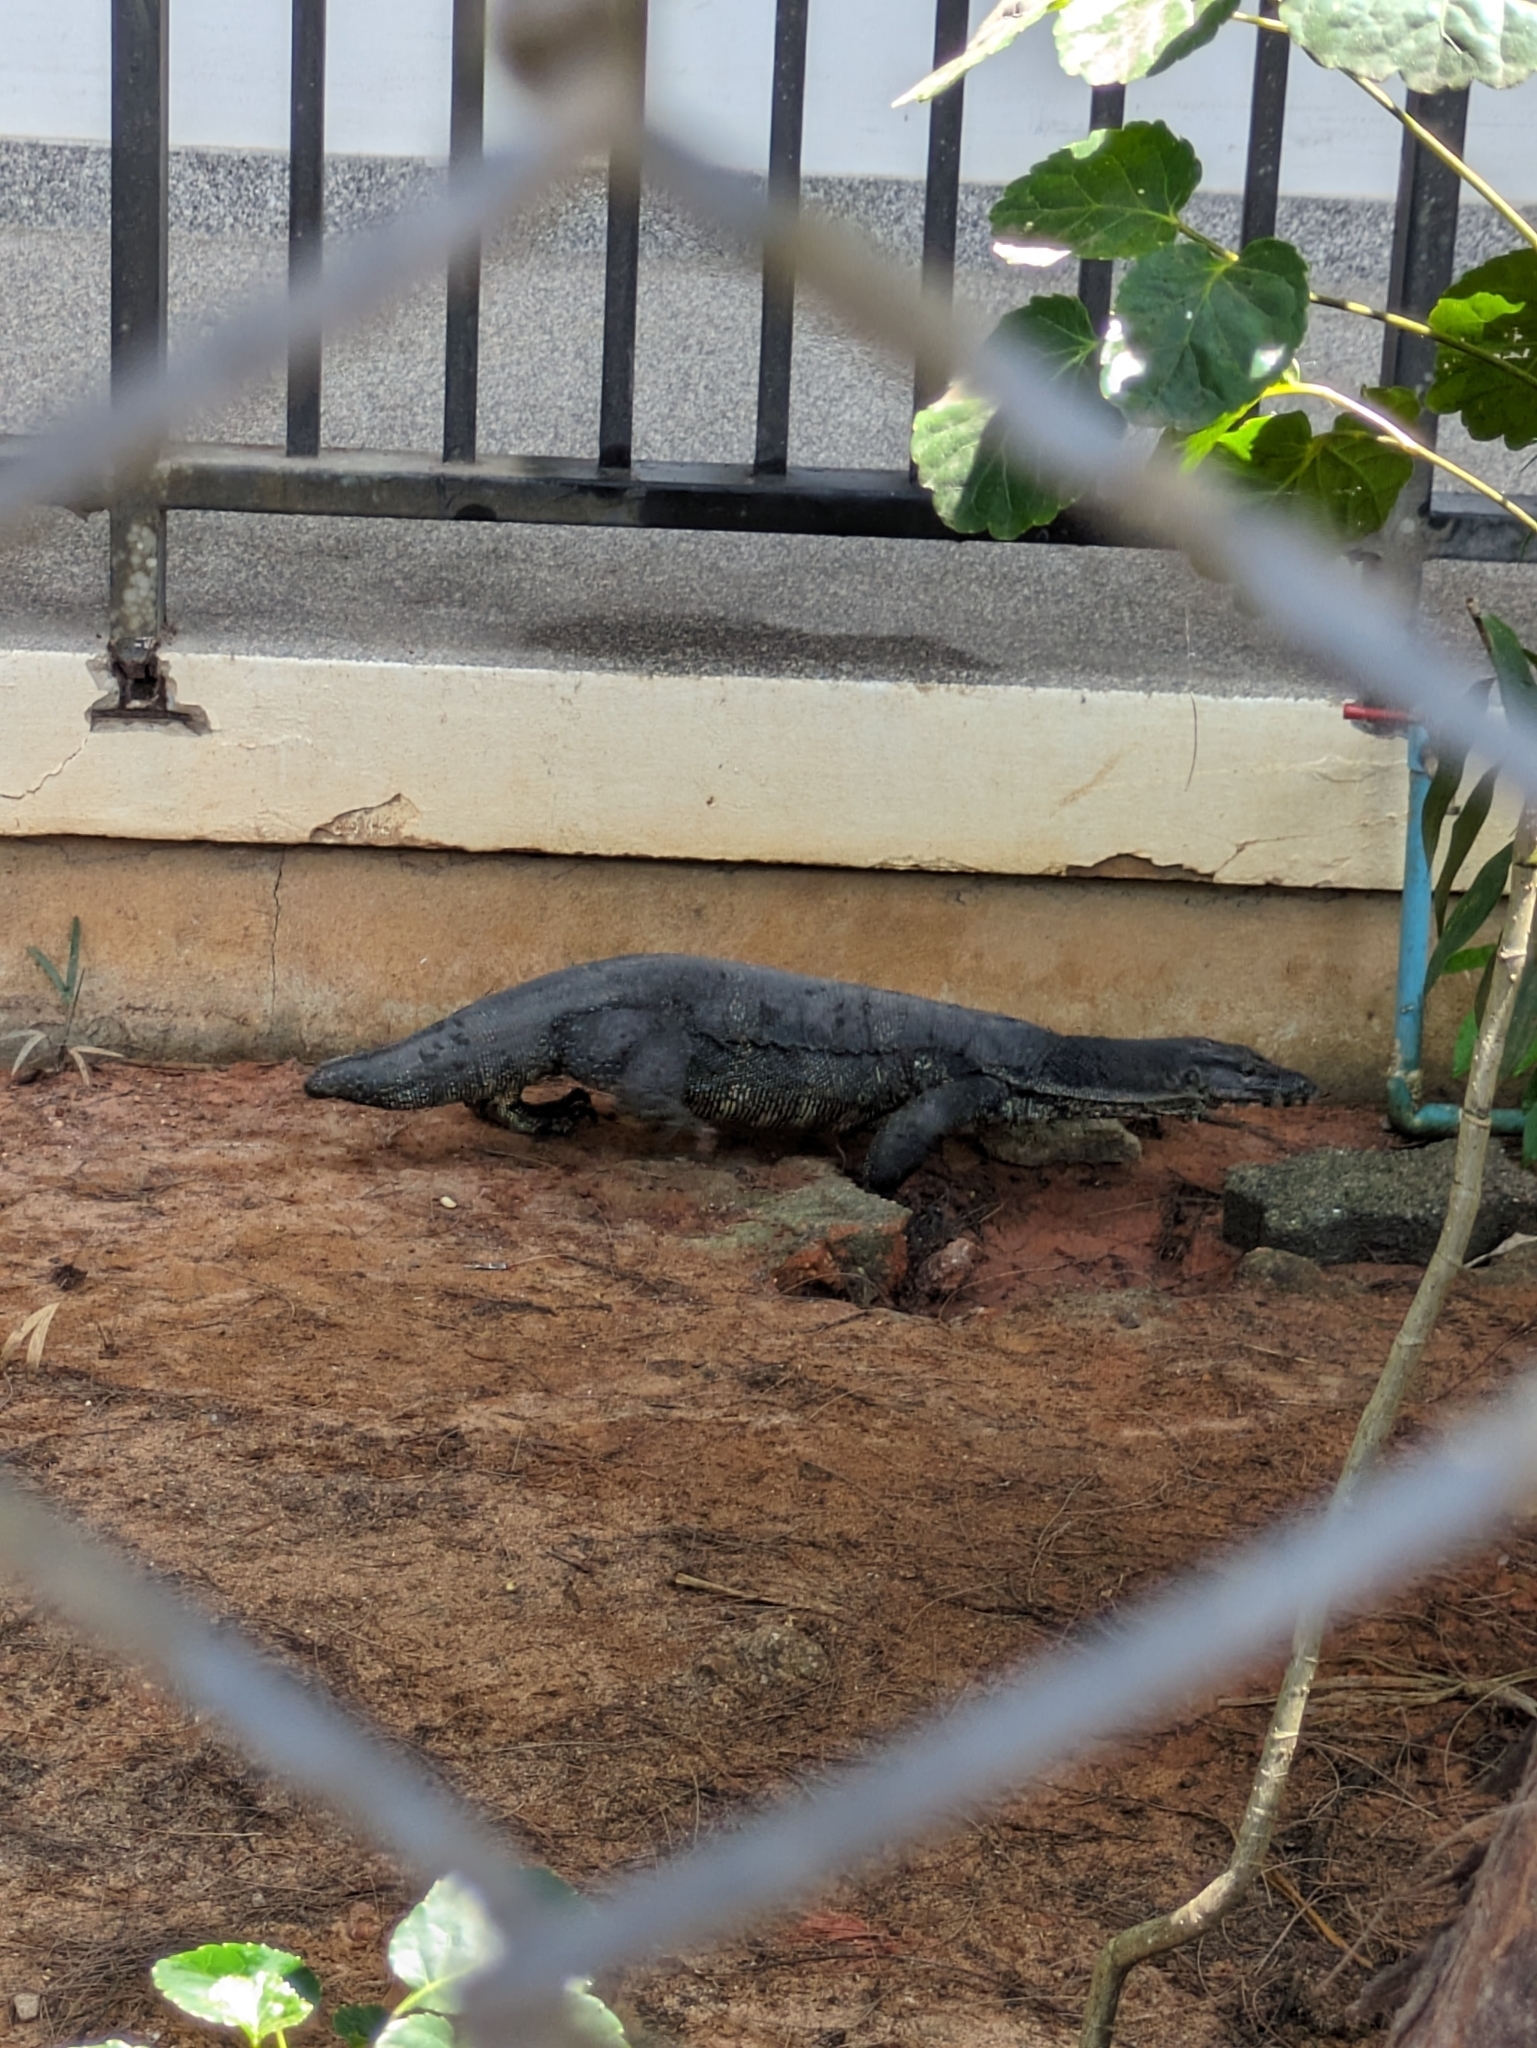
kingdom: Animalia
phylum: Chordata
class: Squamata
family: Varanidae
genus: Varanus
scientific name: Varanus salvator
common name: Common water monitor
